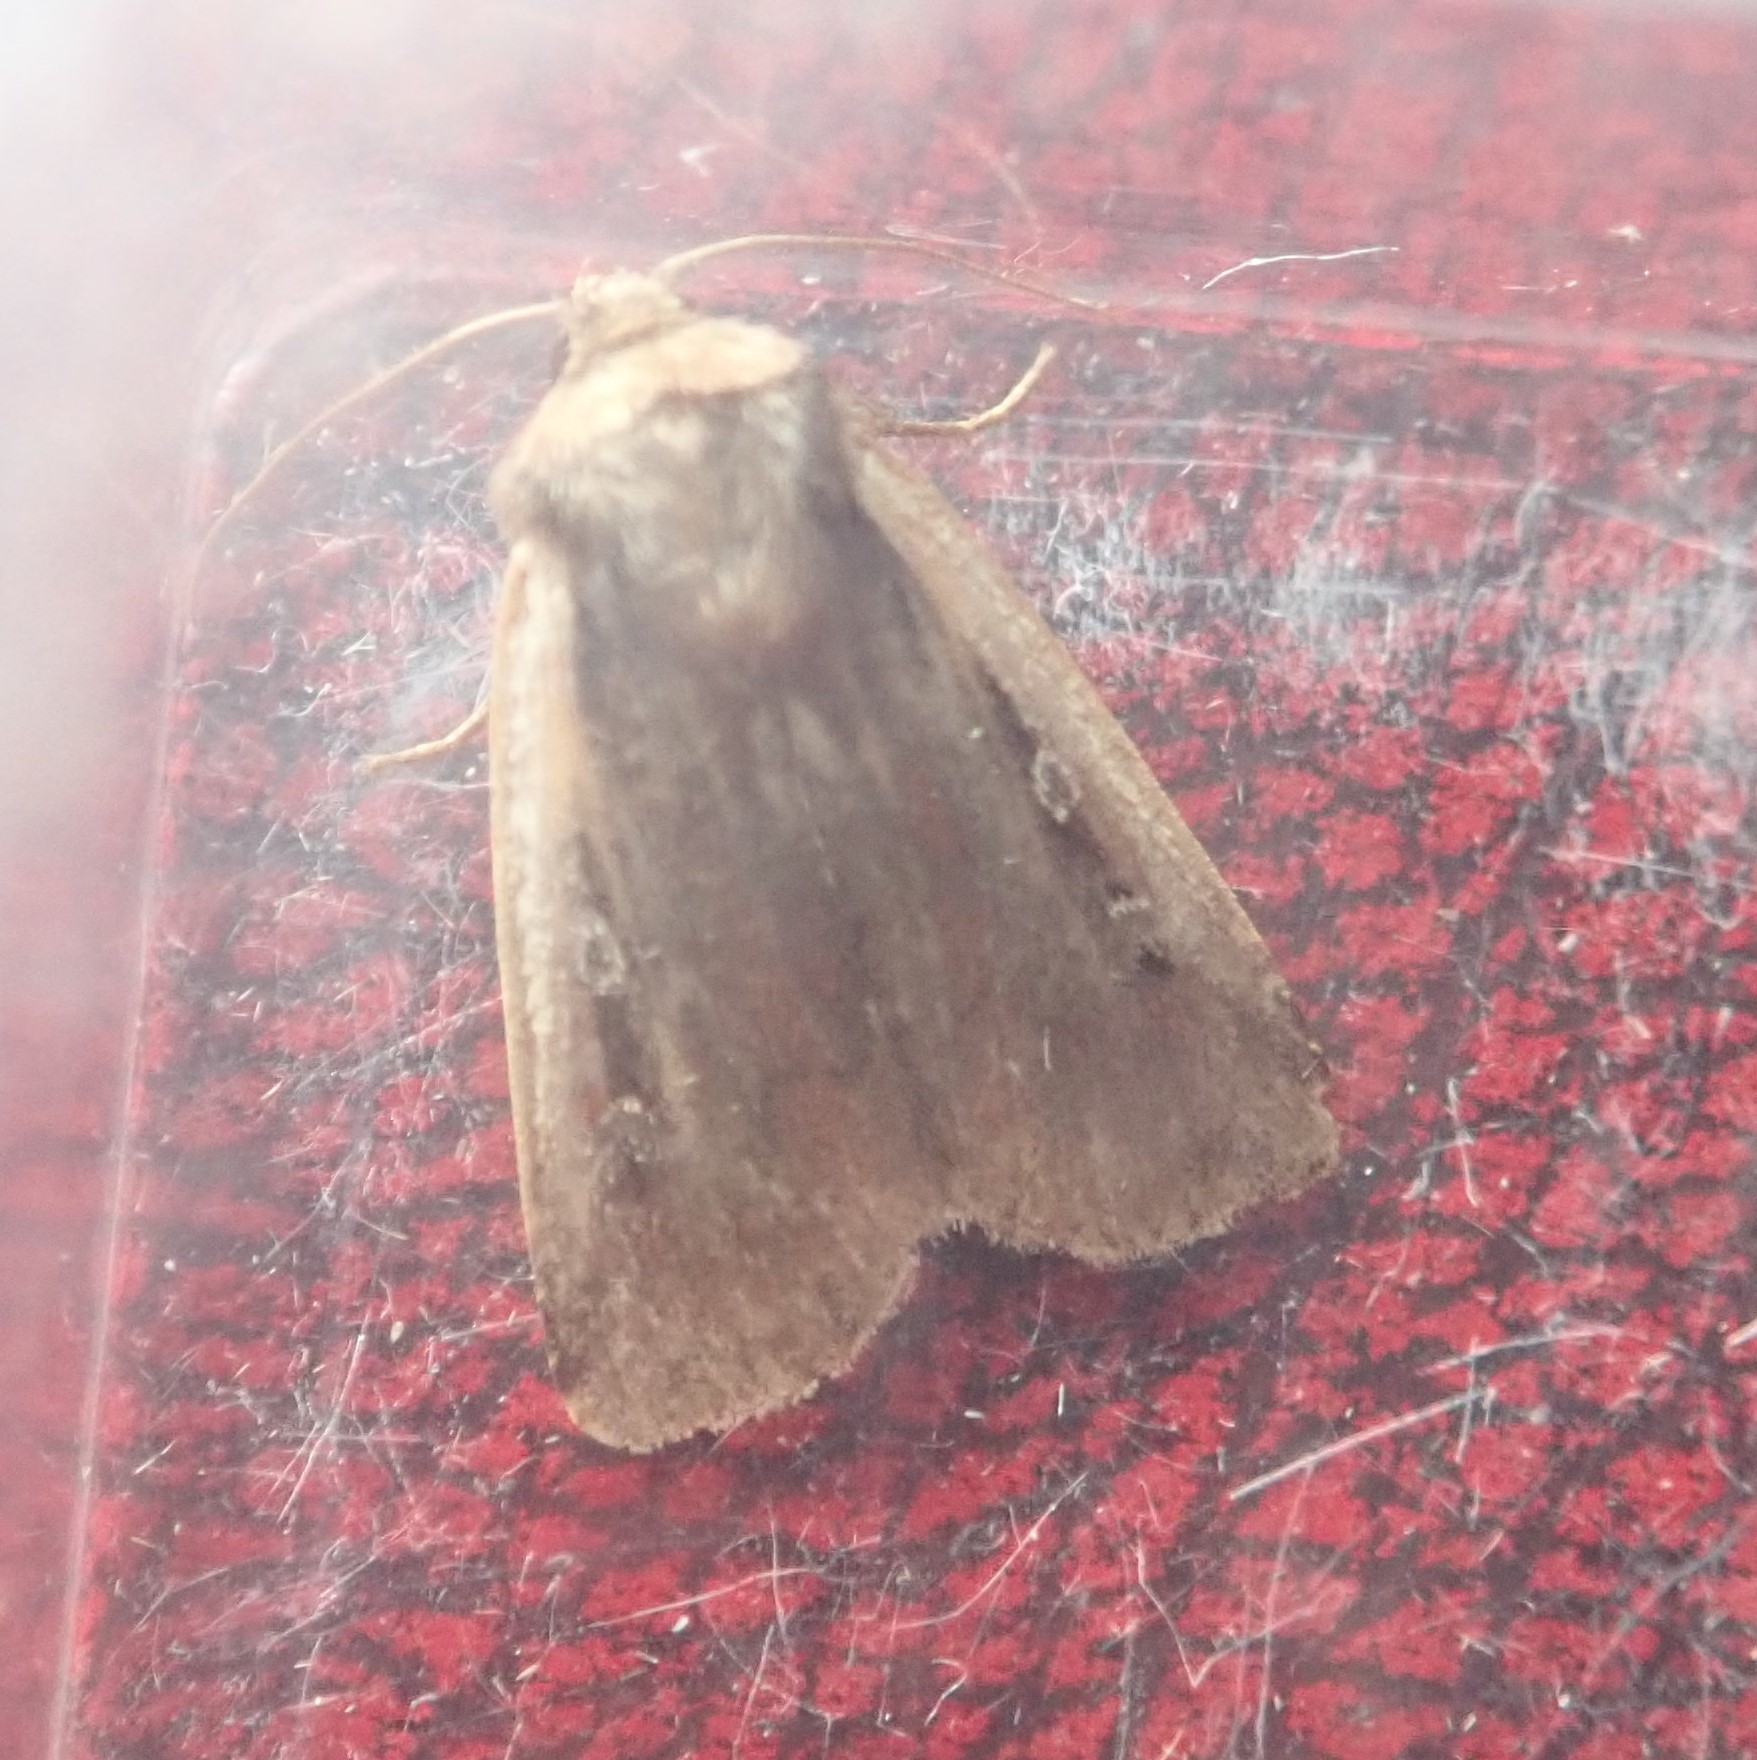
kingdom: Animalia
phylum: Arthropoda
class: Insecta
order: Lepidoptera
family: Noctuidae
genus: Ochropleura
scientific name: Ochropleura plecta
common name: Flame shoulder
